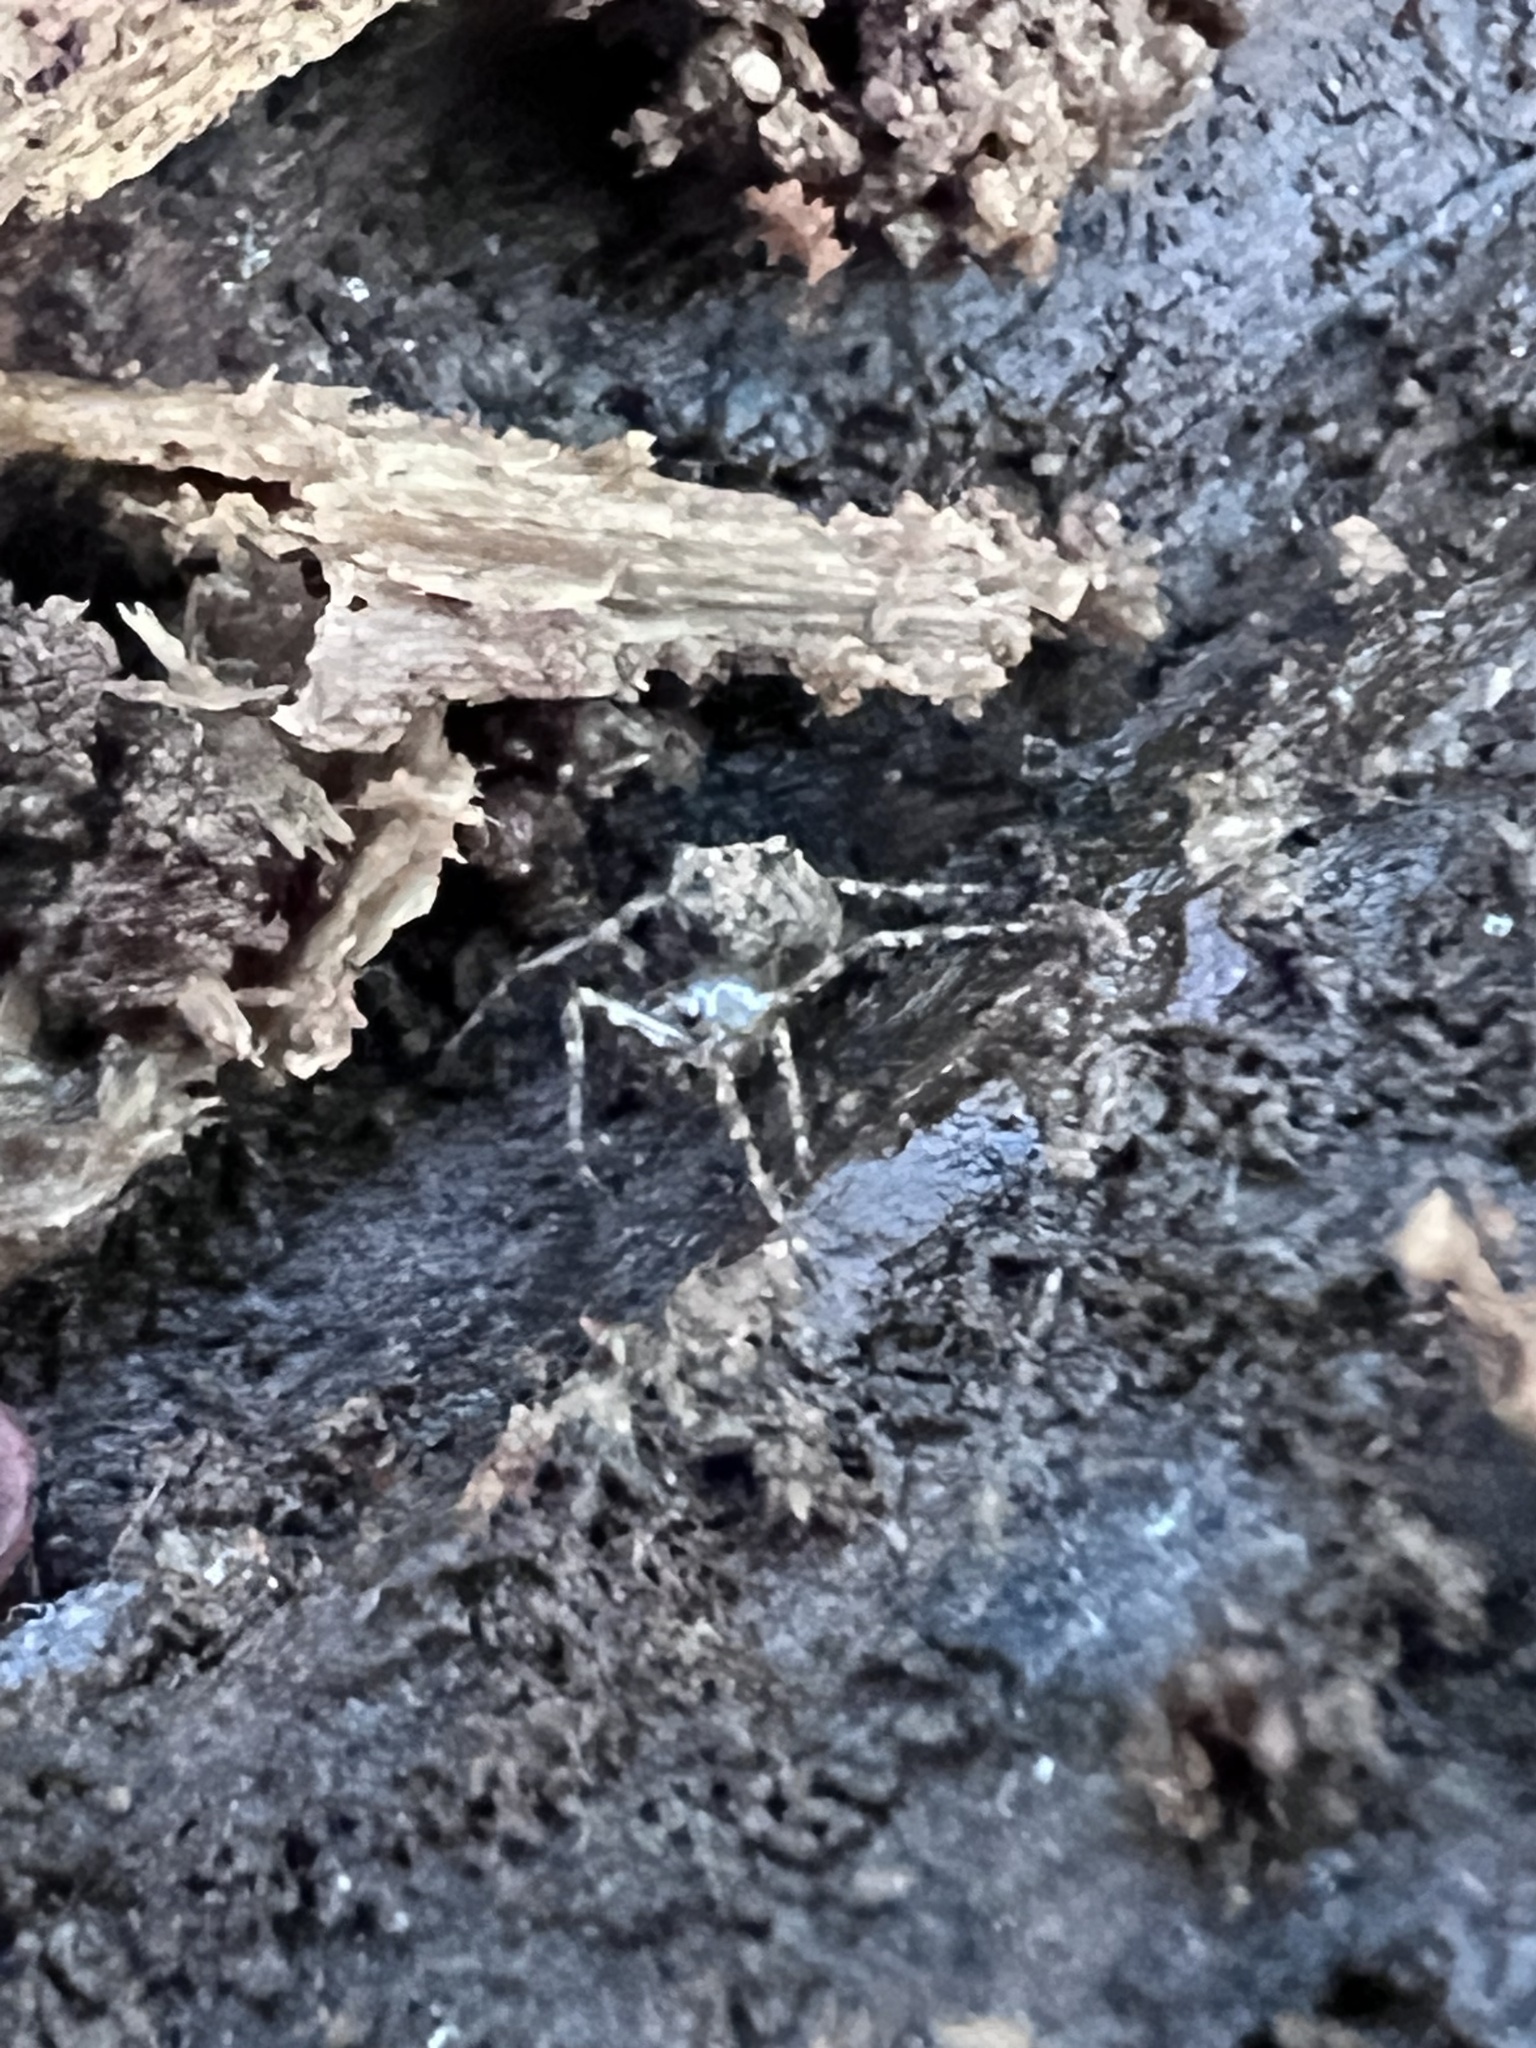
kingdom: Animalia
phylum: Arthropoda
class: Arachnida
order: Araneae
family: Tetragnathidae
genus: Dolichognatha
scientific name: Dolichognatha pentagona
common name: Longjawed orb weavers
